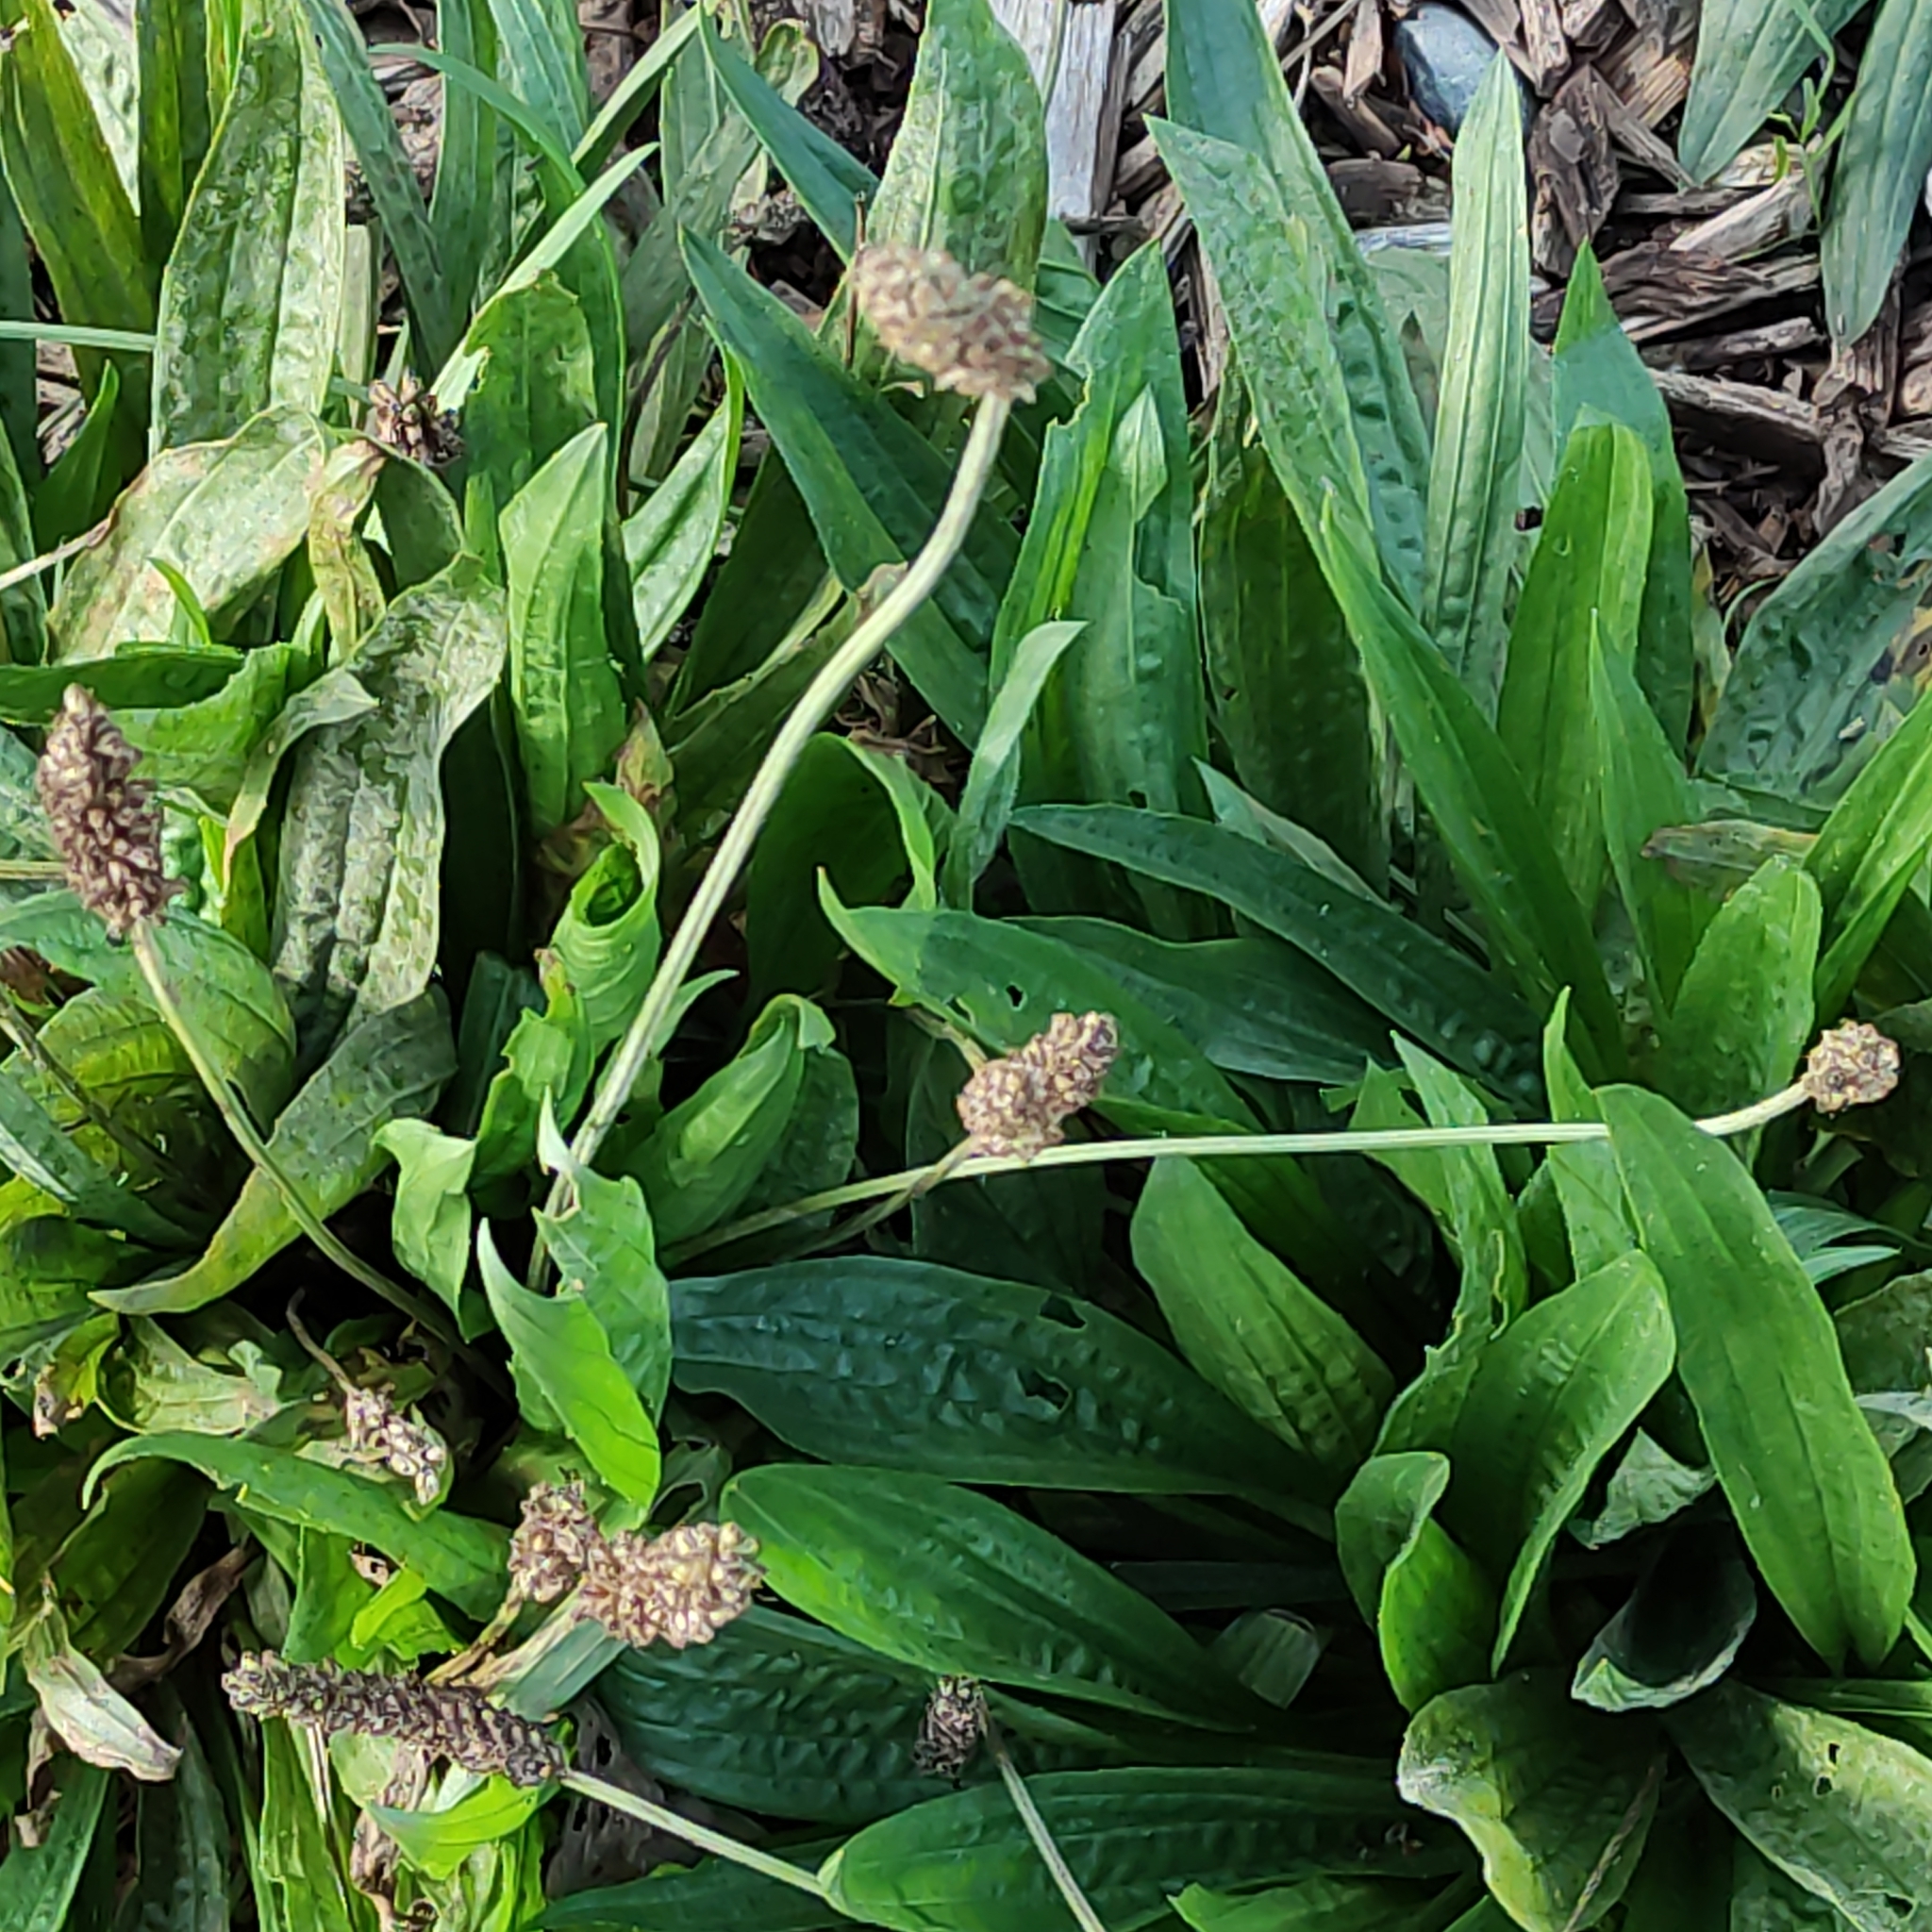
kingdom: Plantae
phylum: Tracheophyta
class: Magnoliopsida
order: Lamiales
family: Plantaginaceae
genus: Plantago
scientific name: Plantago lanceolata
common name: Ribwort plantain
